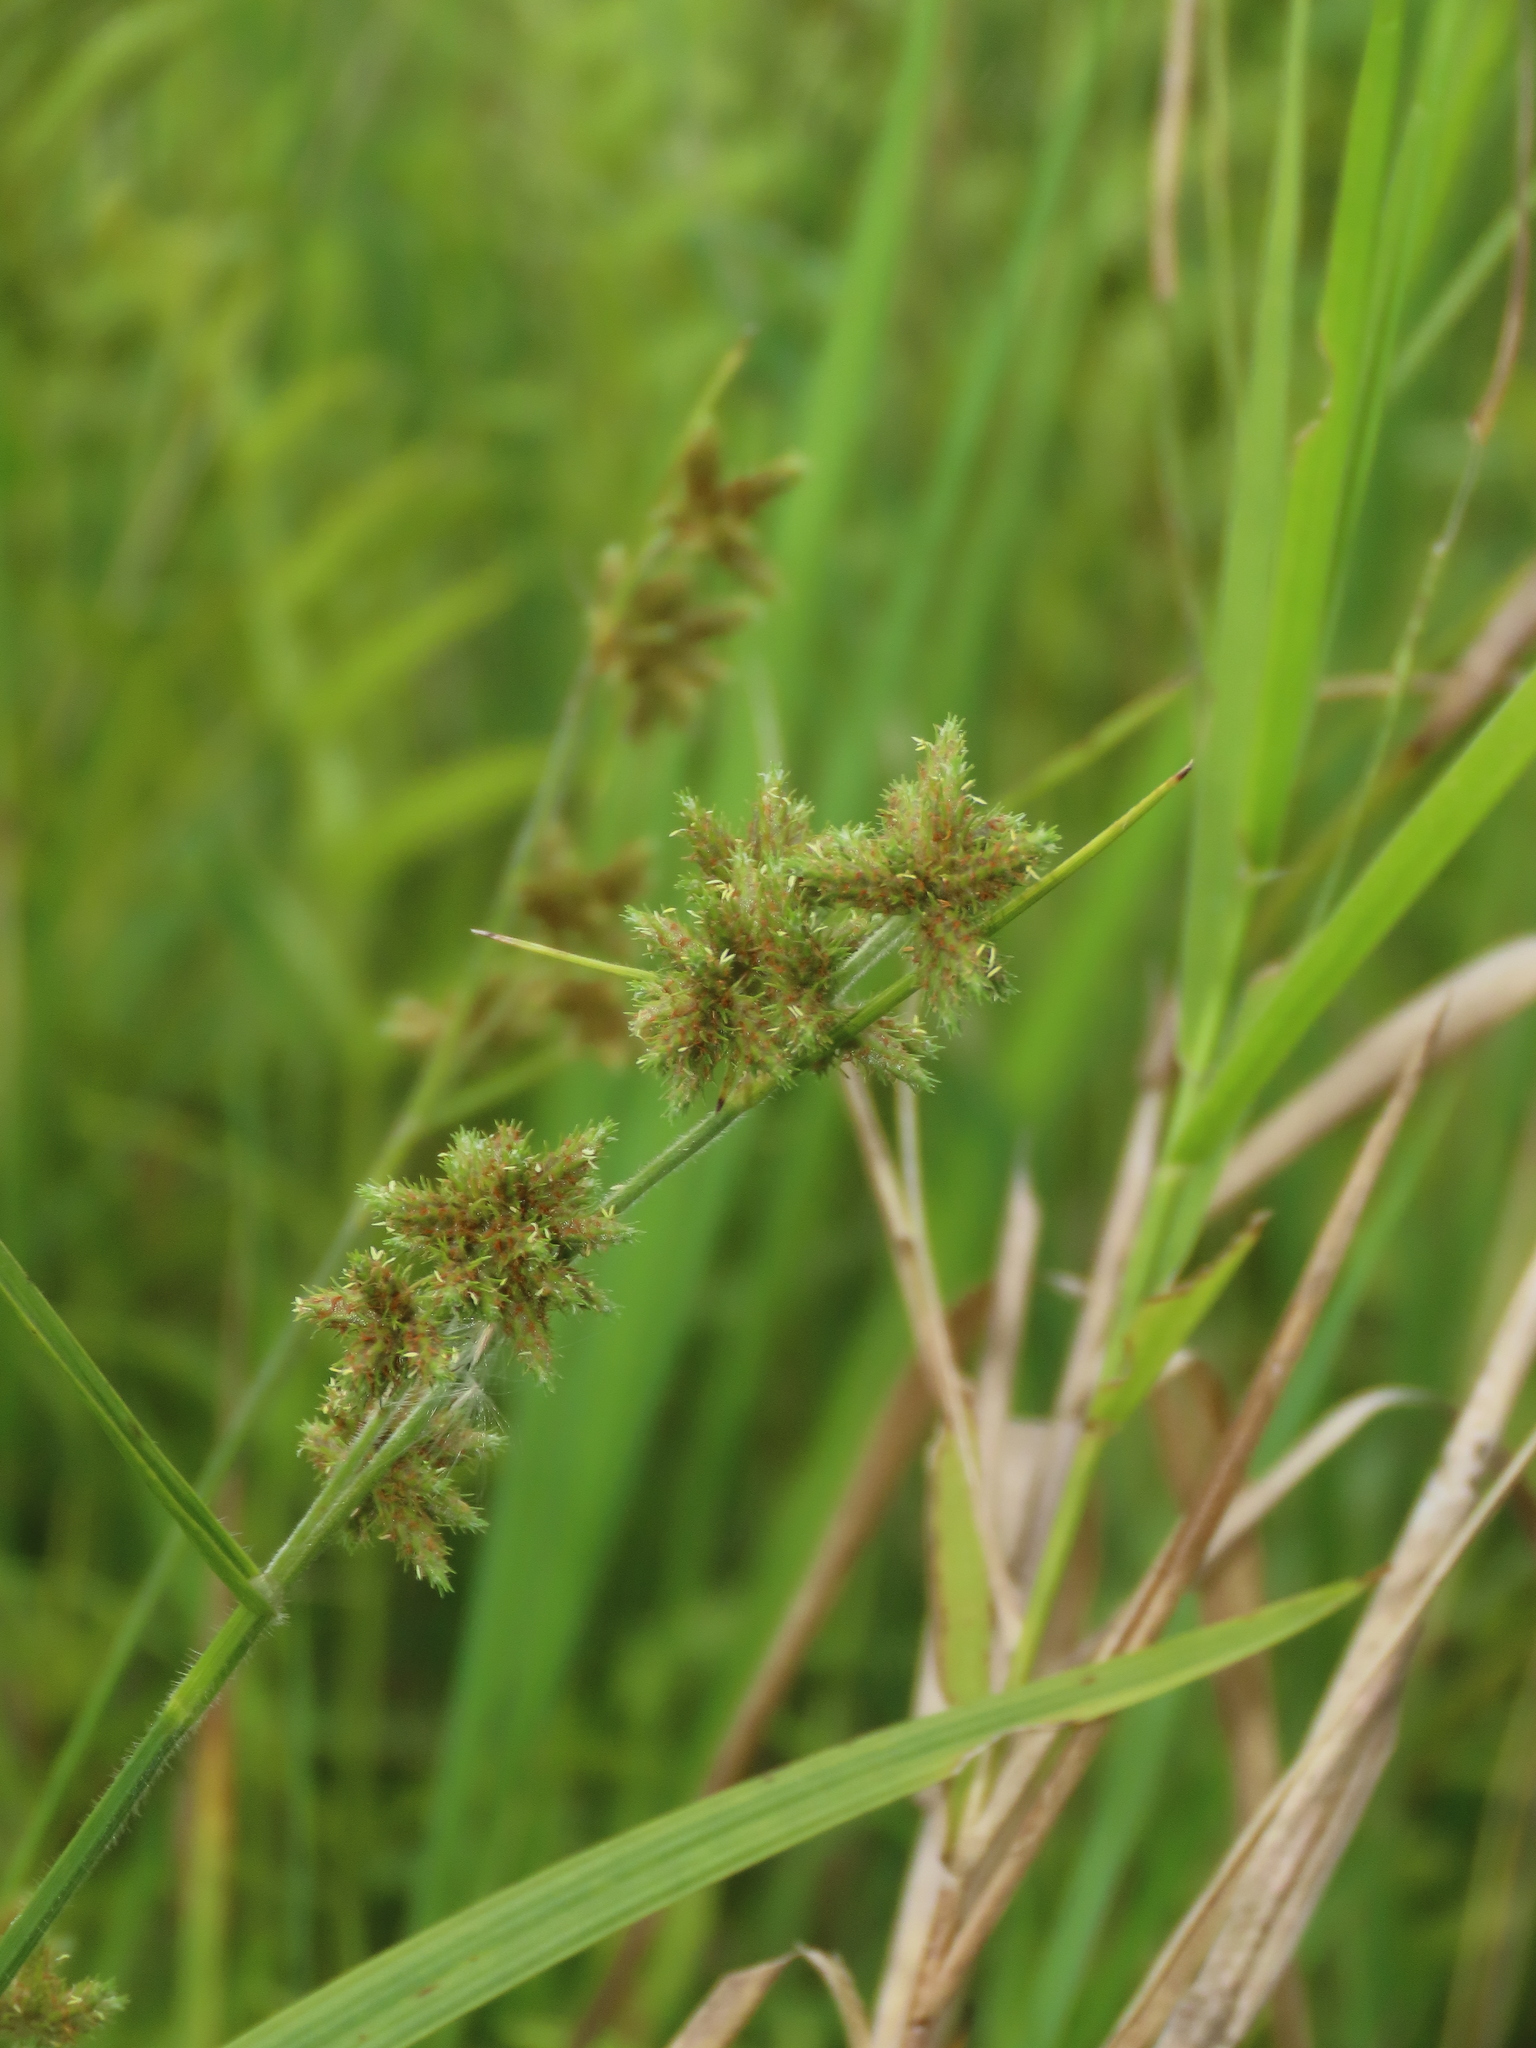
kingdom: Plantae
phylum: Tracheophyta
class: Liliopsida
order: Poales
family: Cyperaceae
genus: Fuirena
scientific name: Fuirena umbellata
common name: Yefen
